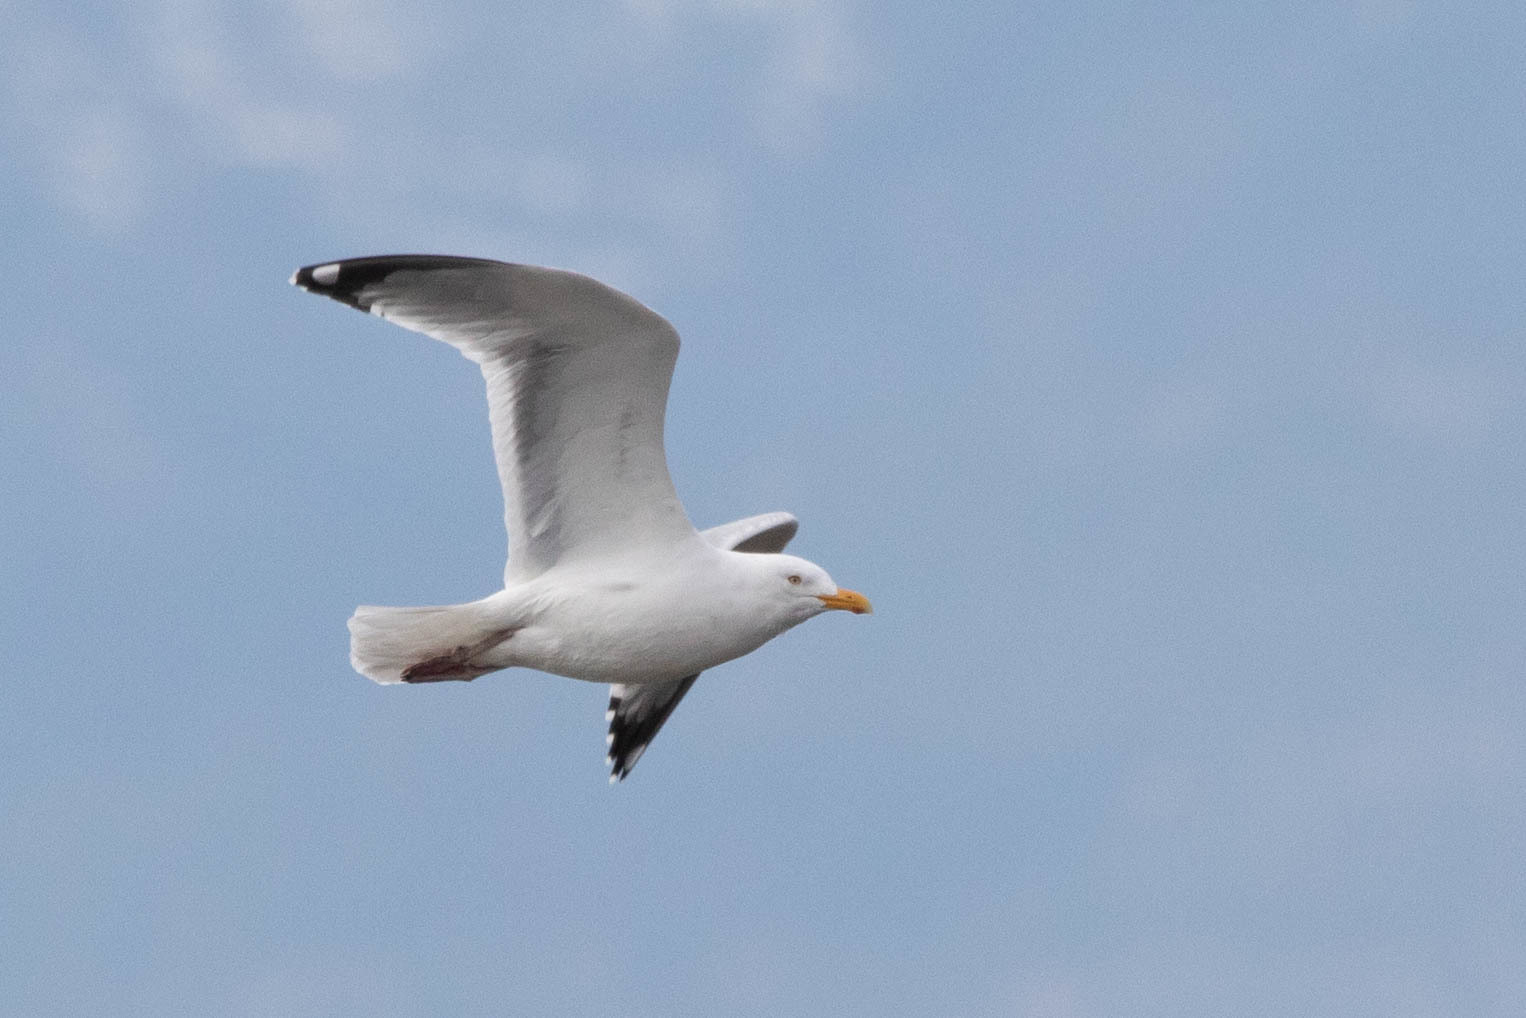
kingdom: Animalia
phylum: Chordata
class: Aves
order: Charadriiformes
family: Laridae
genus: Larus
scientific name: Larus argentatus
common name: Herring gull
